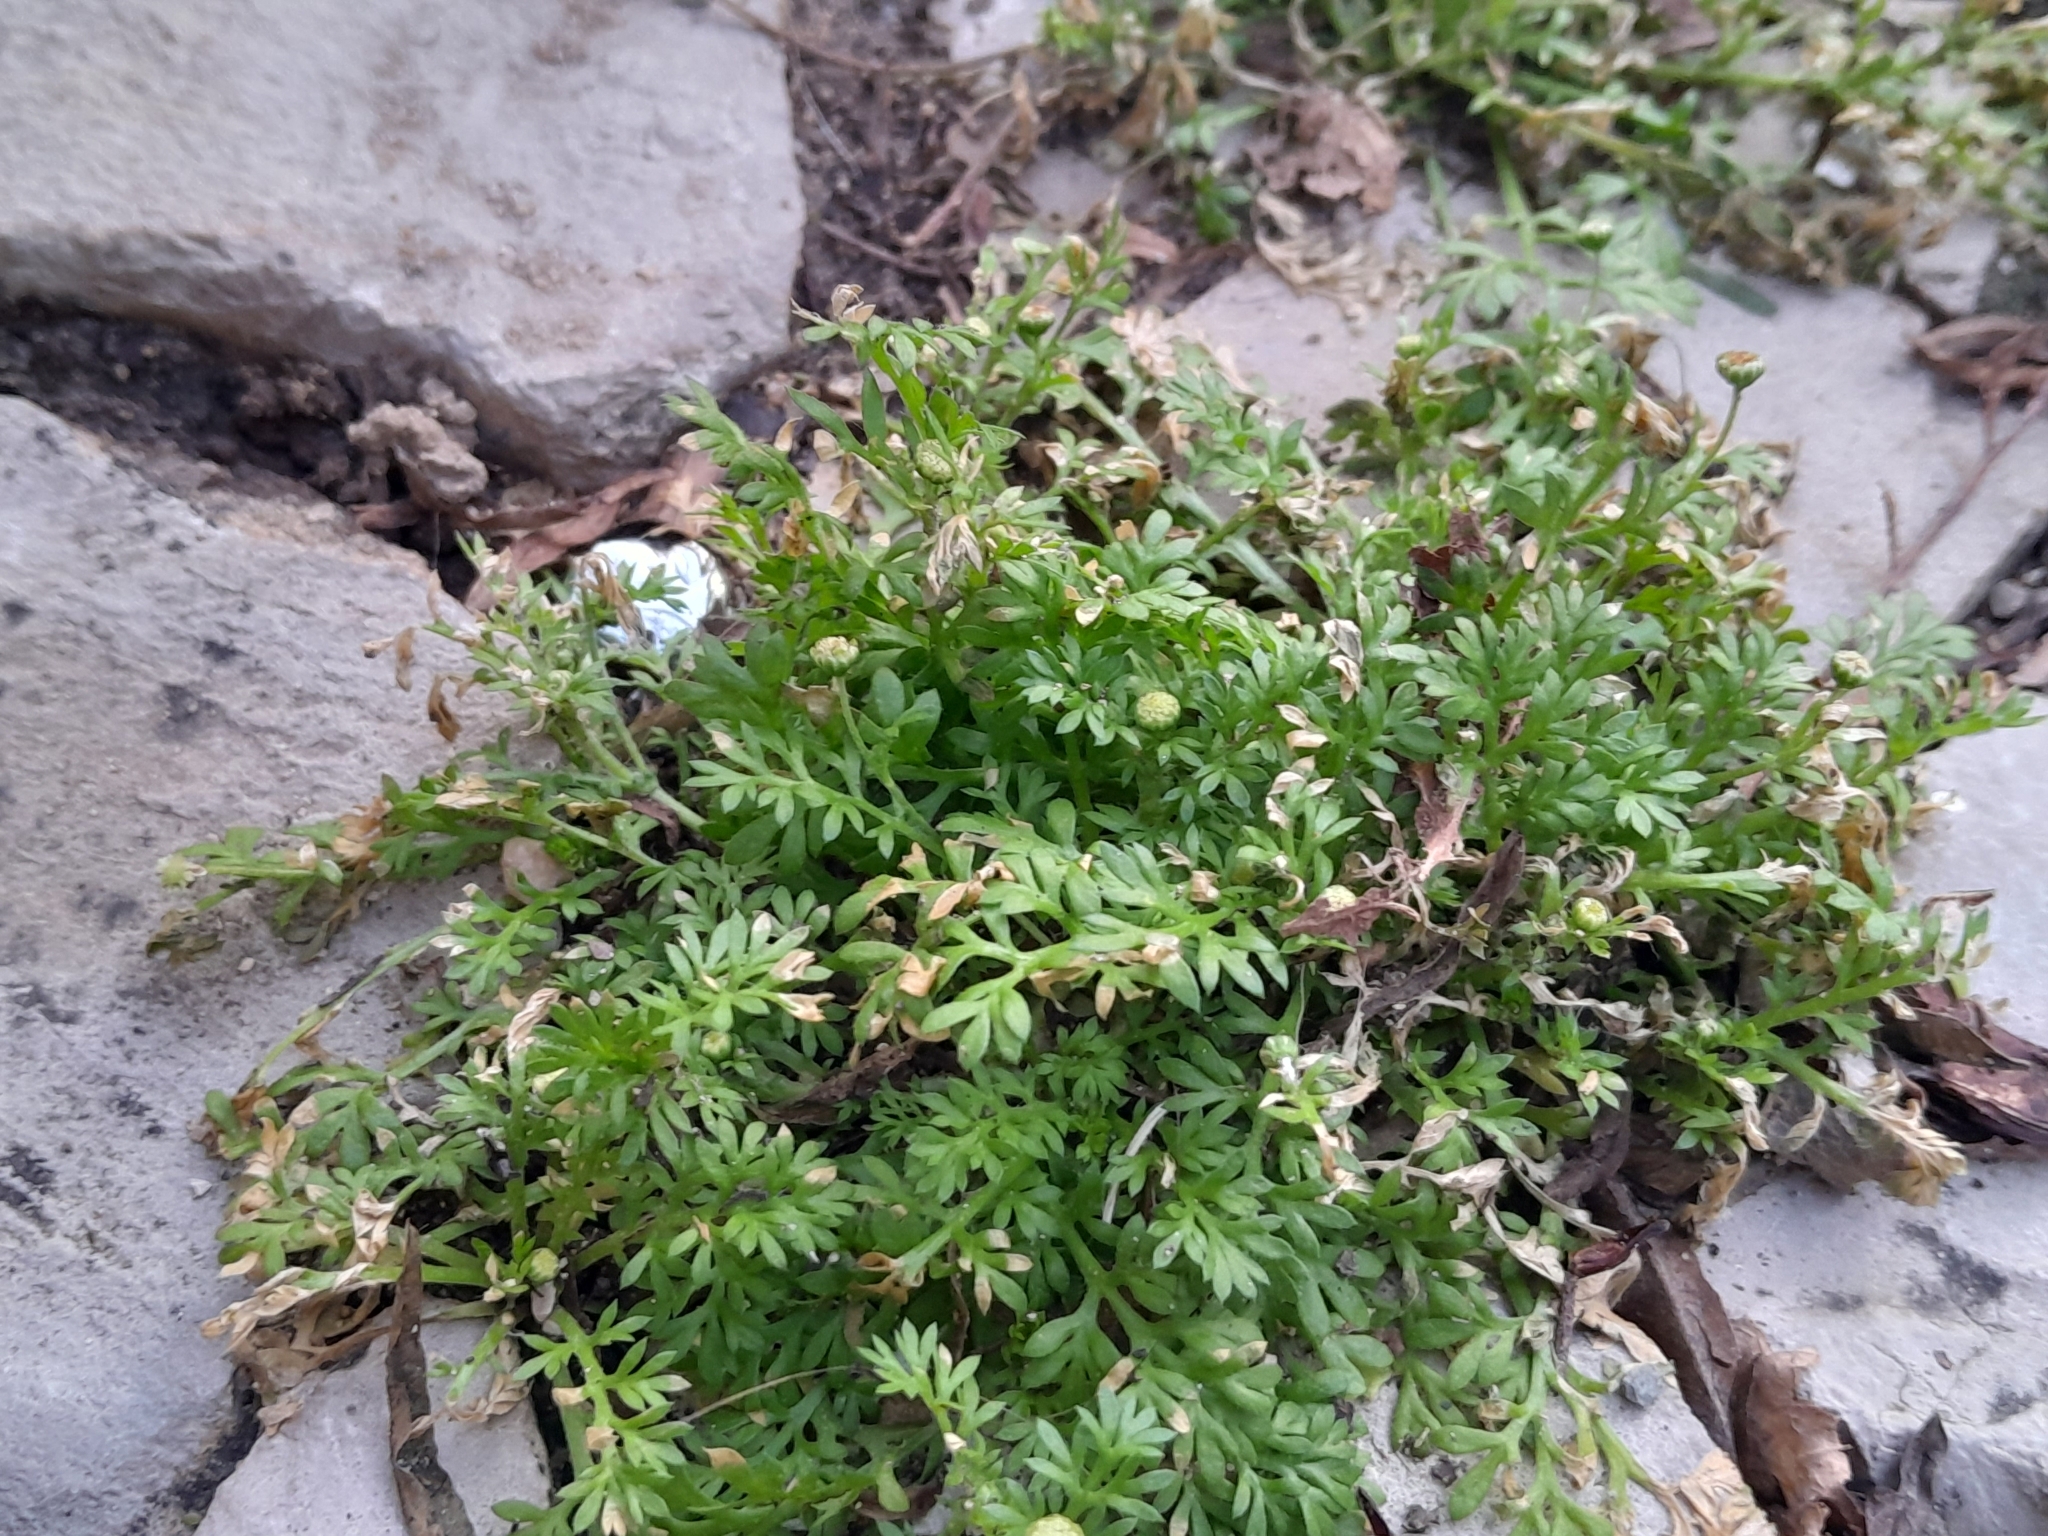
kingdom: Plantae
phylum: Tracheophyta
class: Magnoliopsida
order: Asterales
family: Asteraceae
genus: Cotula
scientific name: Cotula australis
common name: Australian waterbuttons
